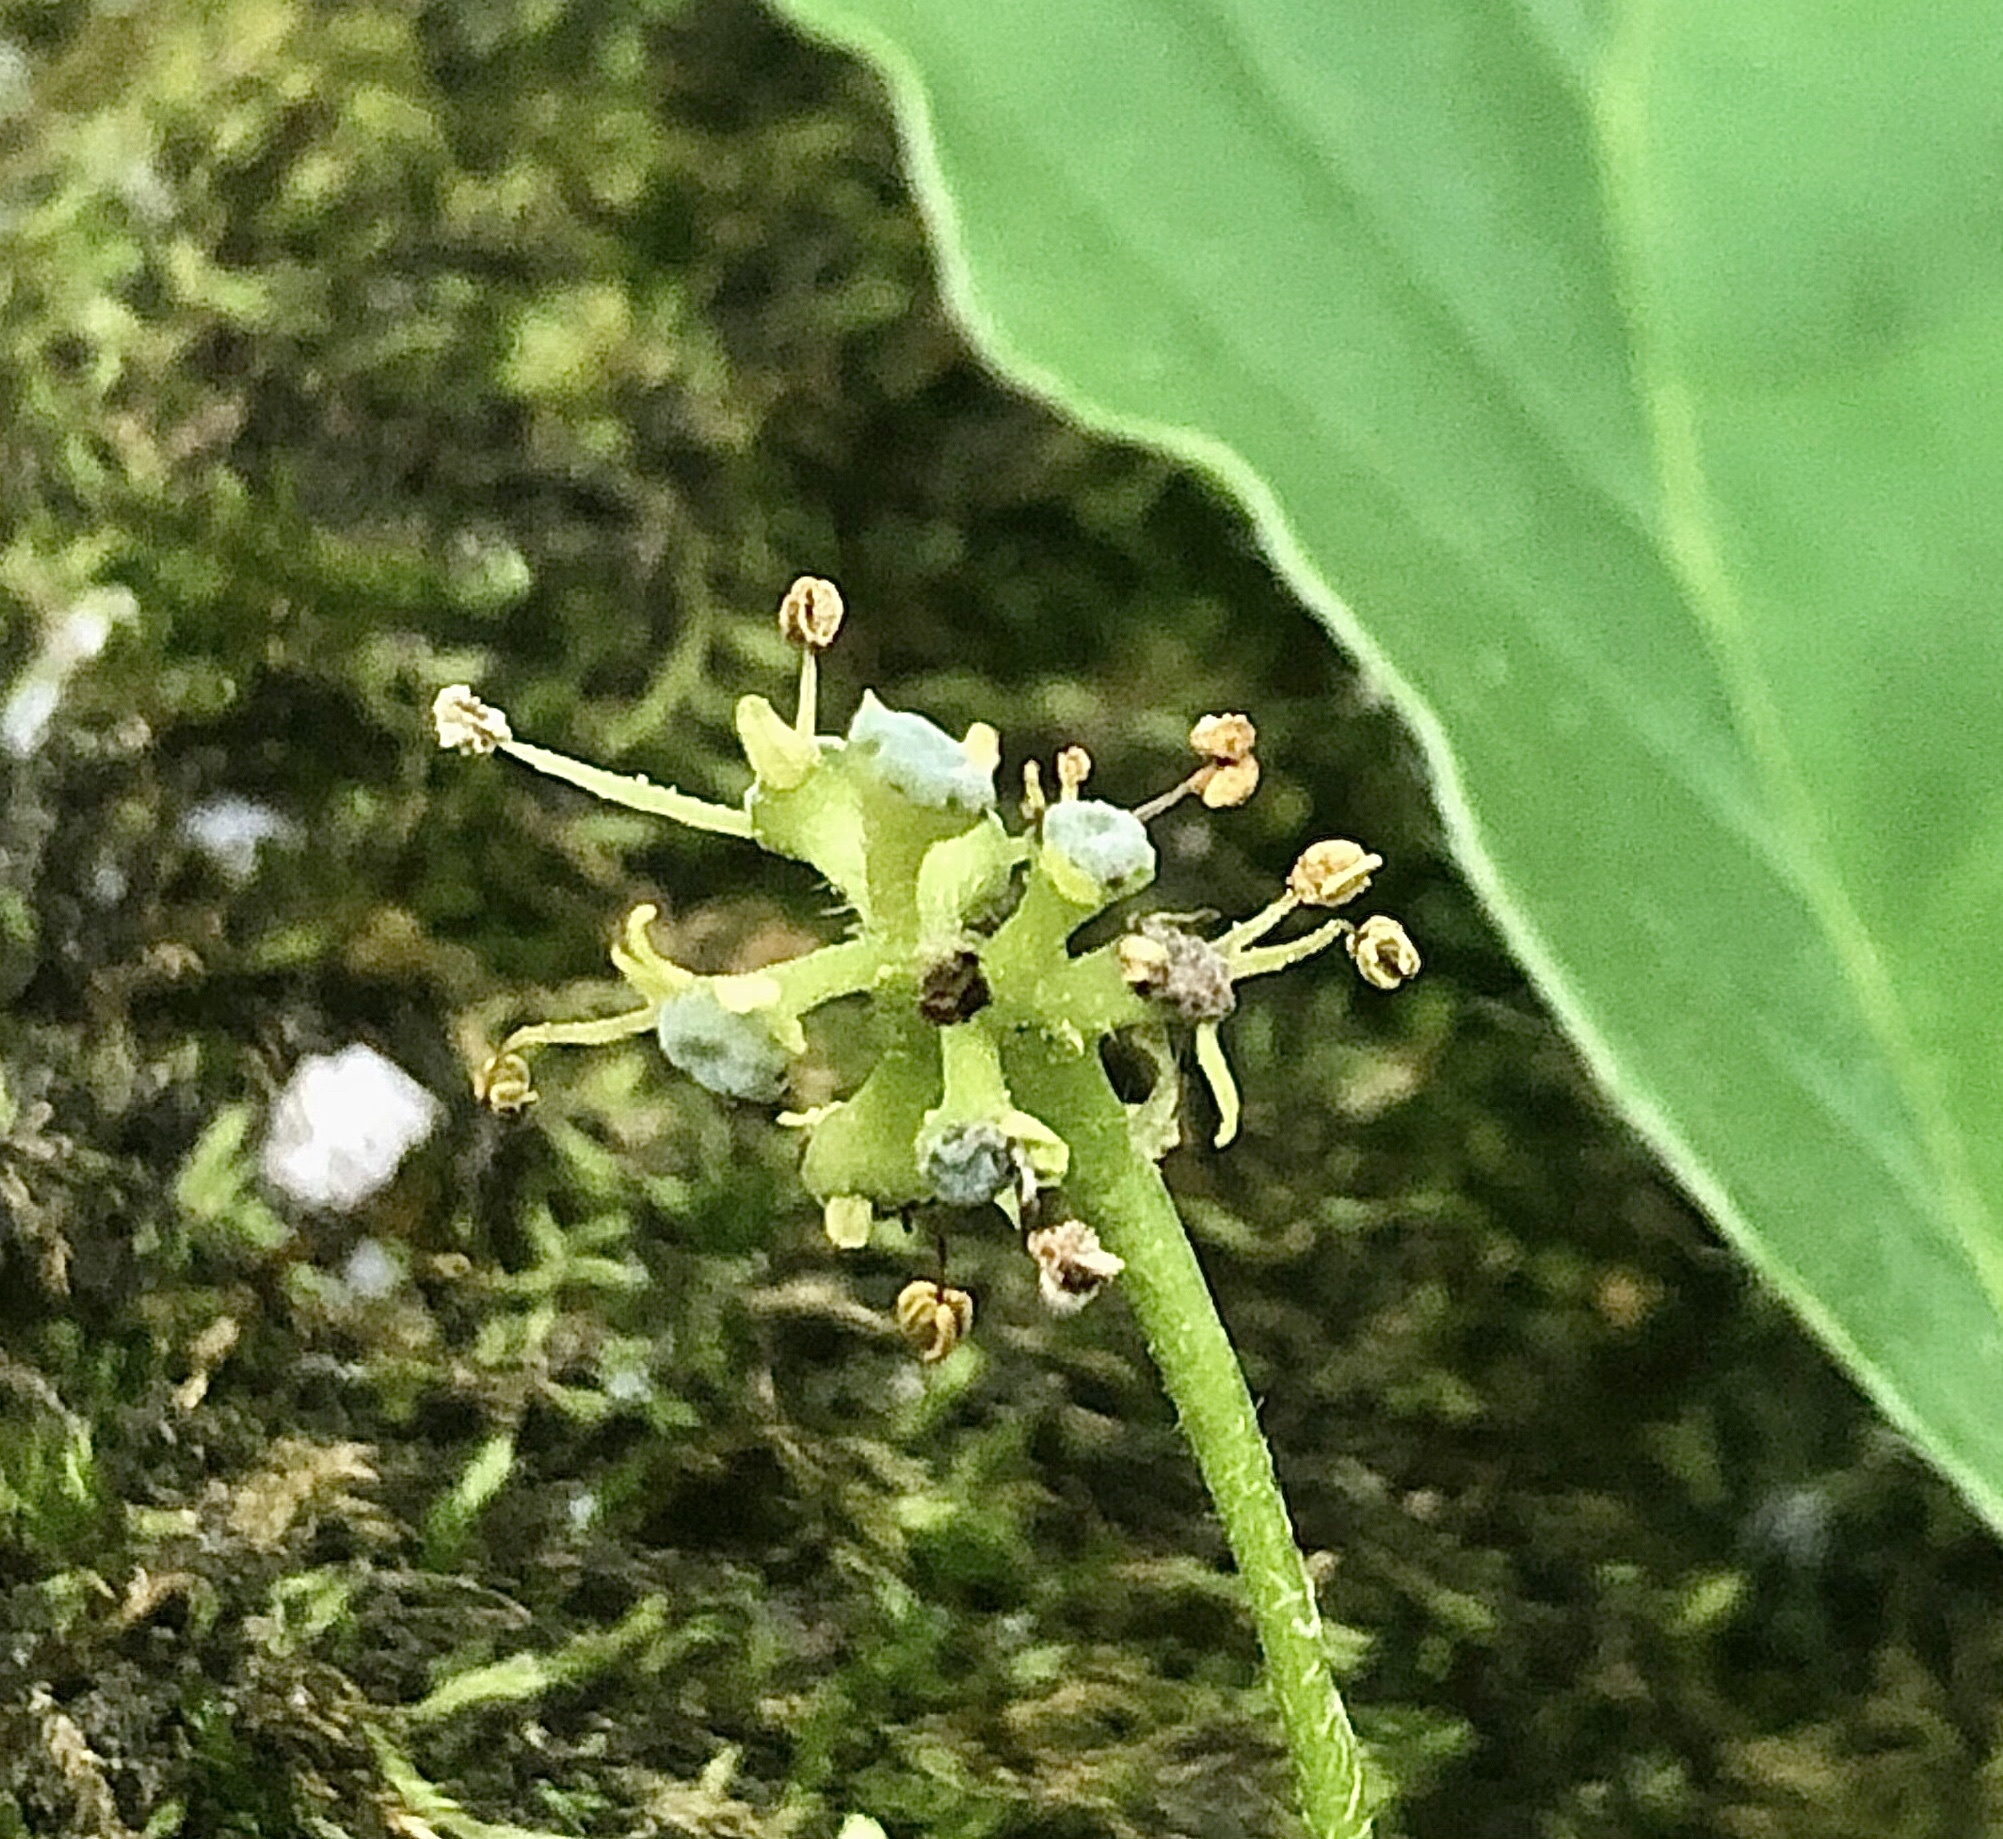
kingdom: Plantae
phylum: Tracheophyta
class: Magnoliopsida
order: Cornales
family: Nyssaceae
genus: Nyssa
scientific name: Nyssa sylvatica
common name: Black tupelo
